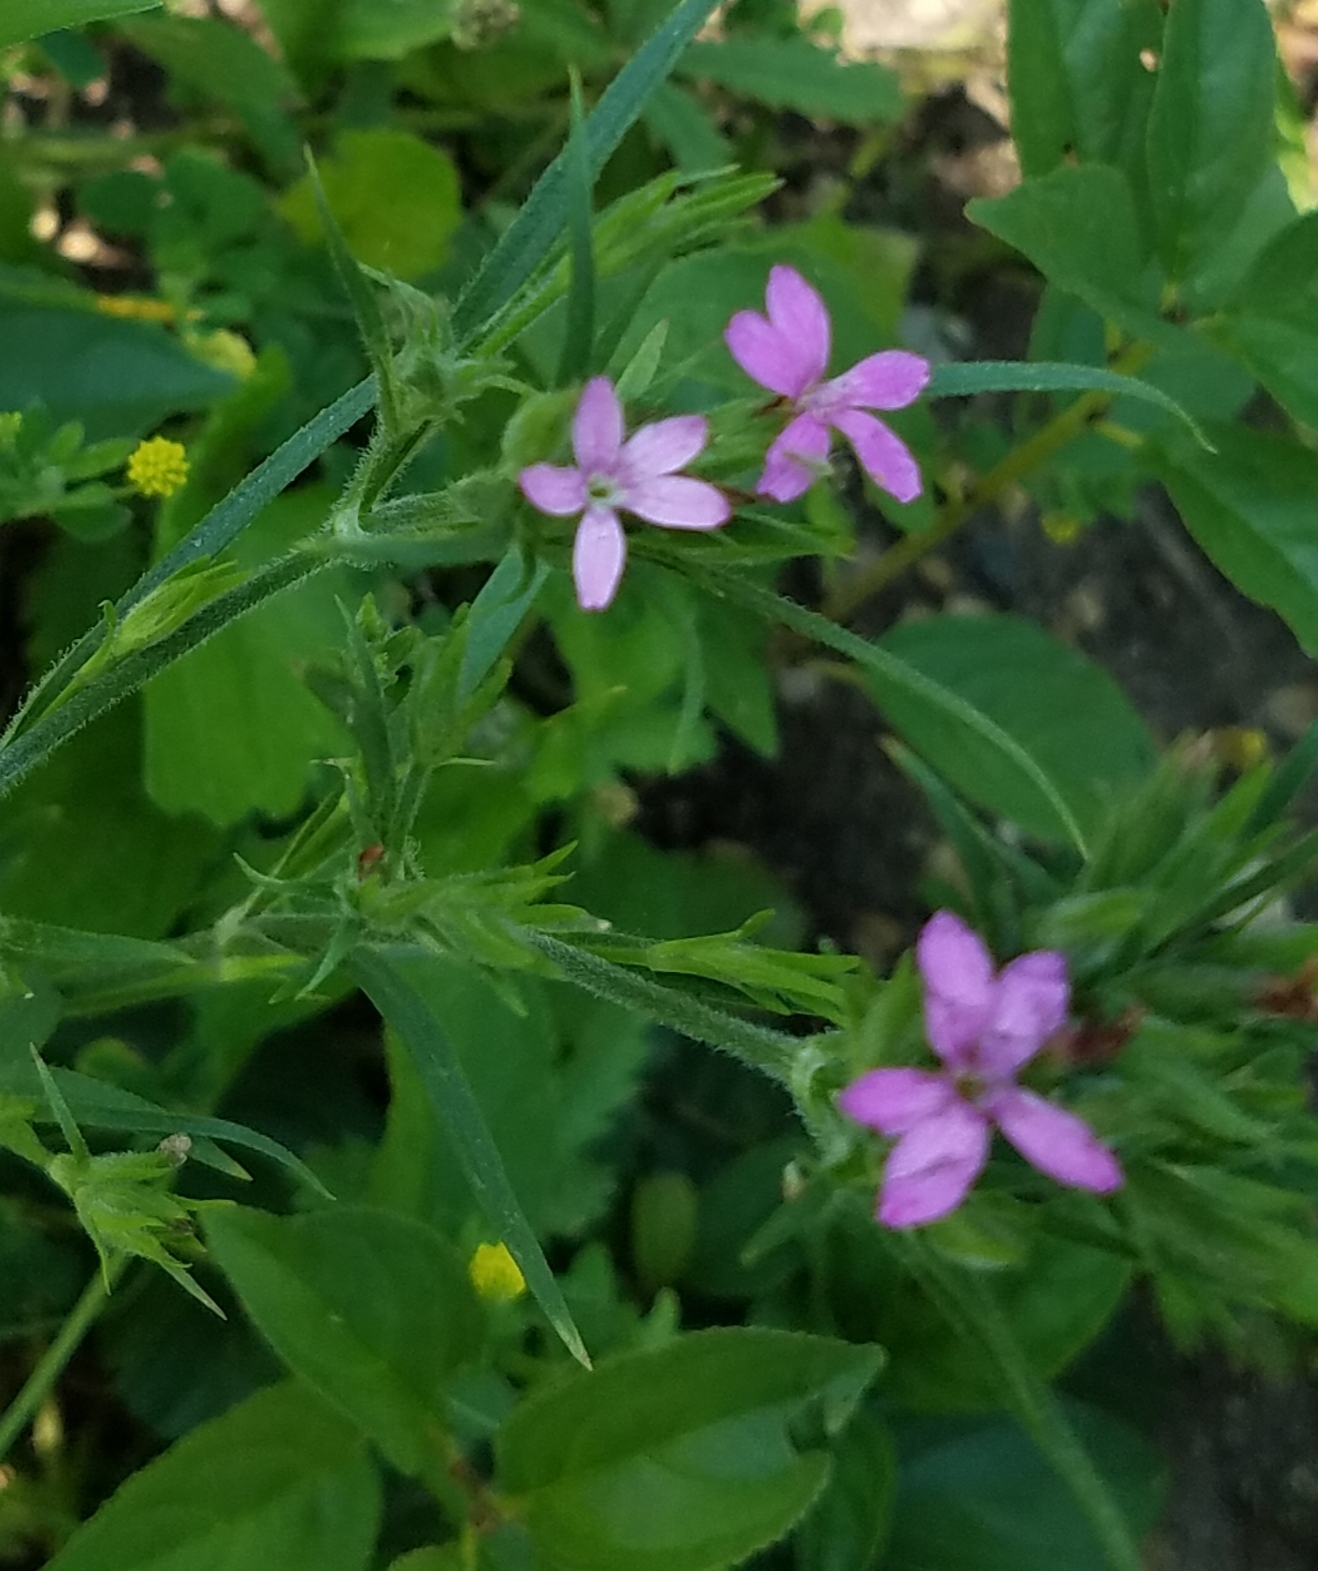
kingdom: Plantae
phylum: Tracheophyta
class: Magnoliopsida
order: Caryophyllales
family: Caryophyllaceae
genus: Dianthus
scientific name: Dianthus armeria
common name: Deptford pink
